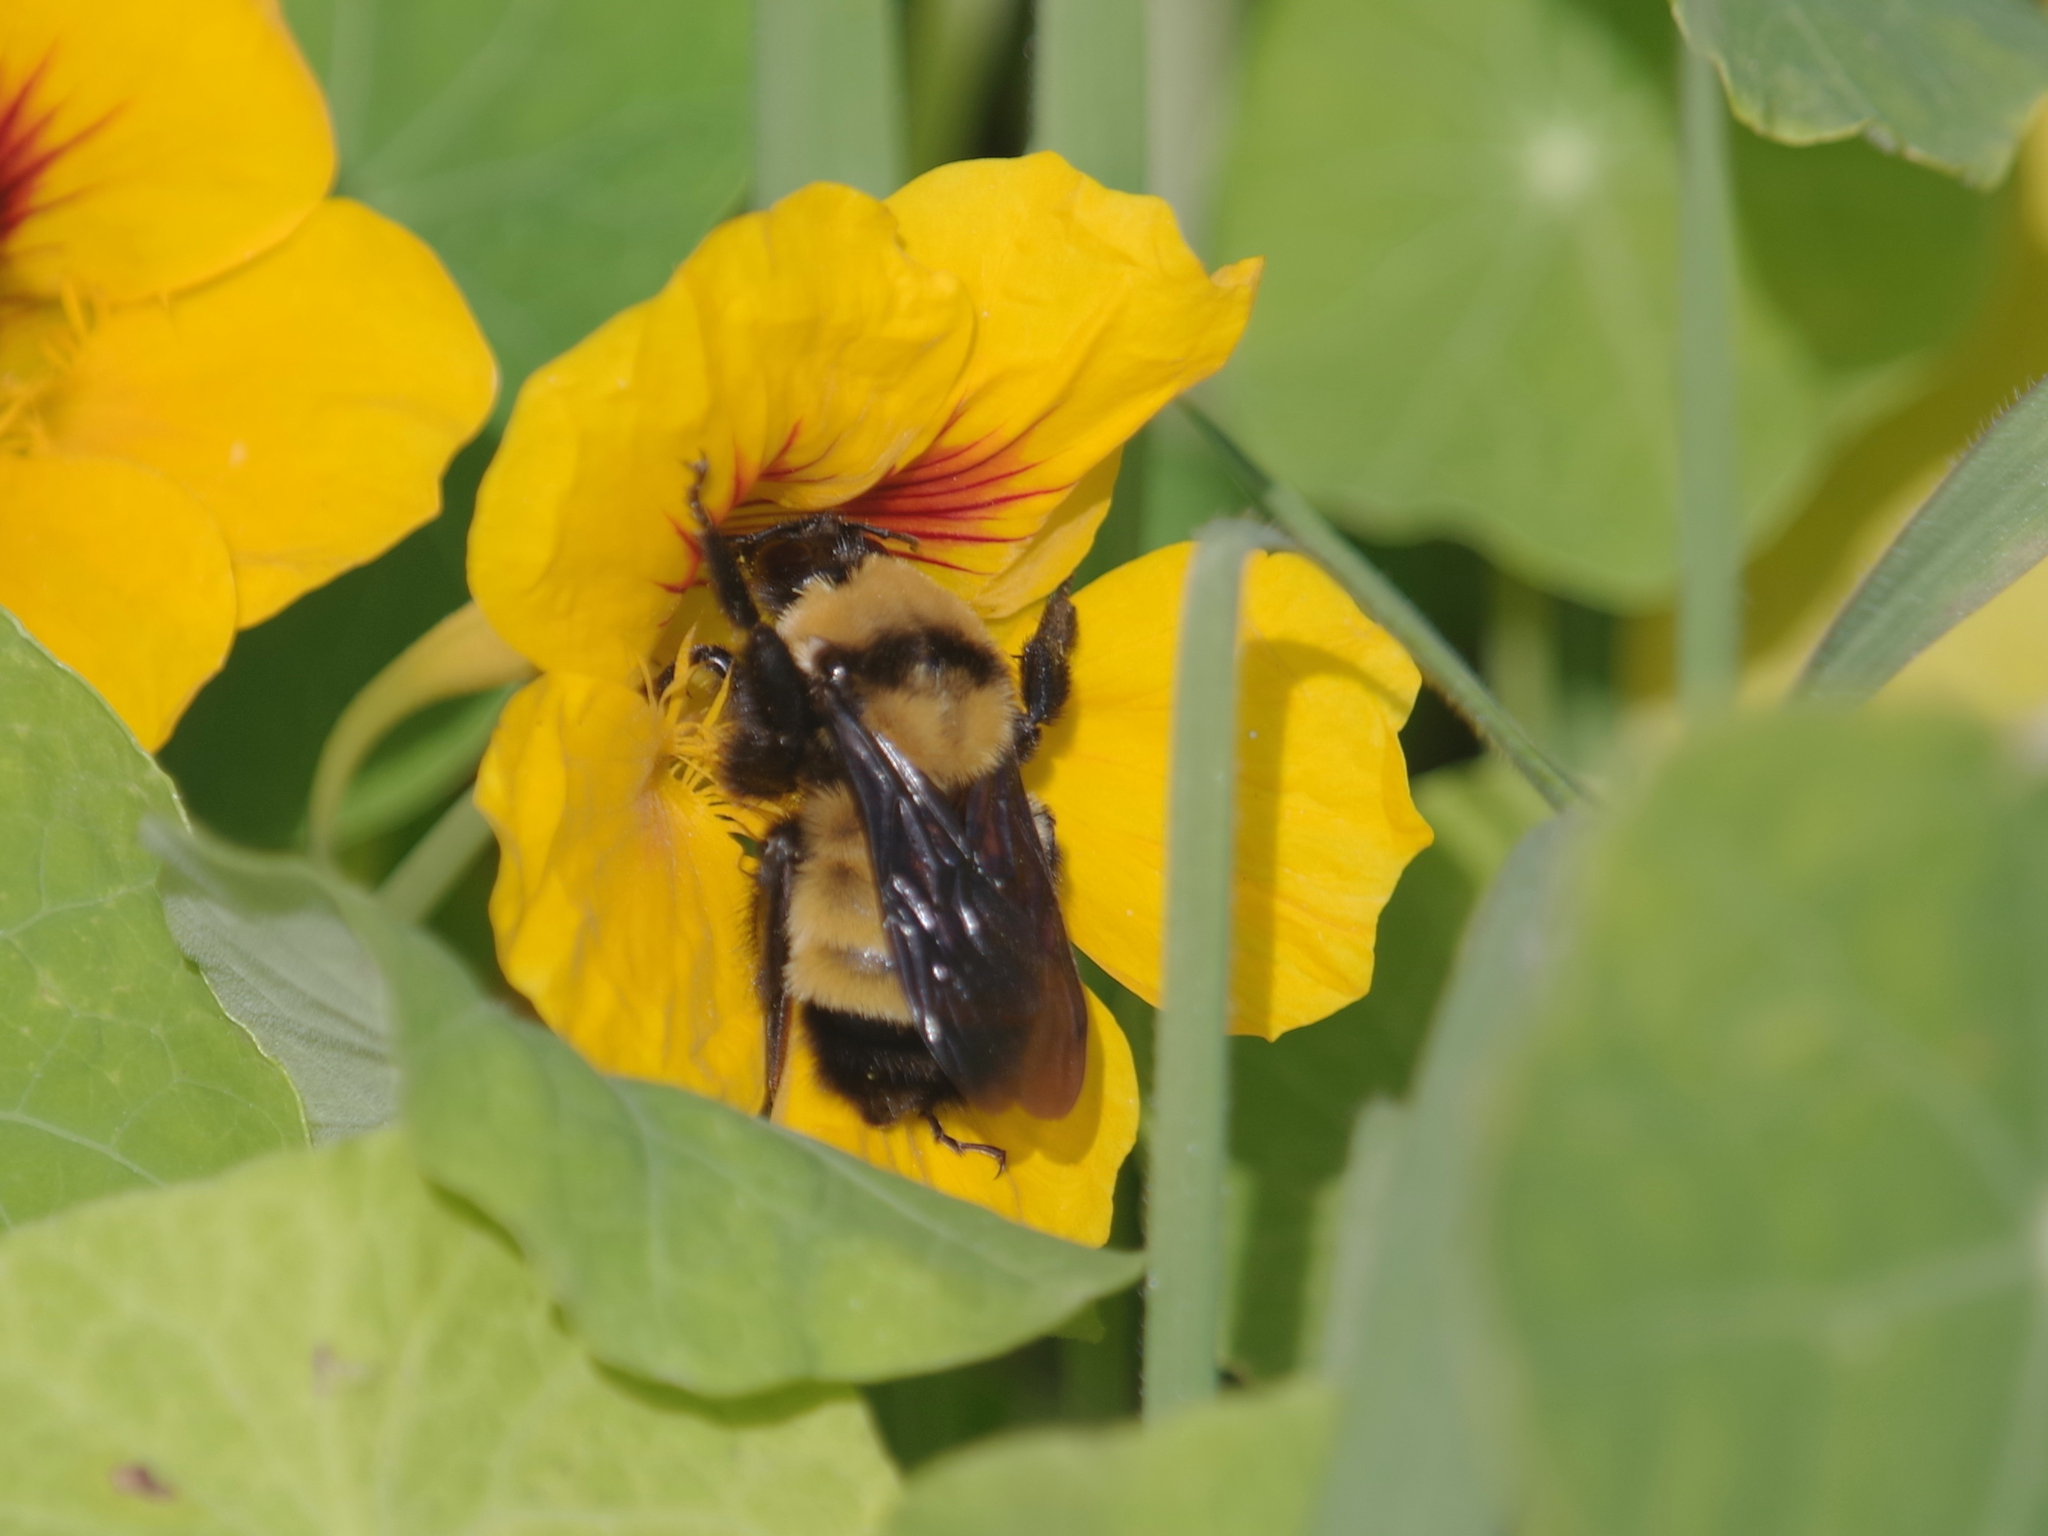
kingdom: Animalia
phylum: Arthropoda
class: Insecta
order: Hymenoptera
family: Apidae
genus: Bombus
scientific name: Bombus sonorus
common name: Sonoran bumble bee
